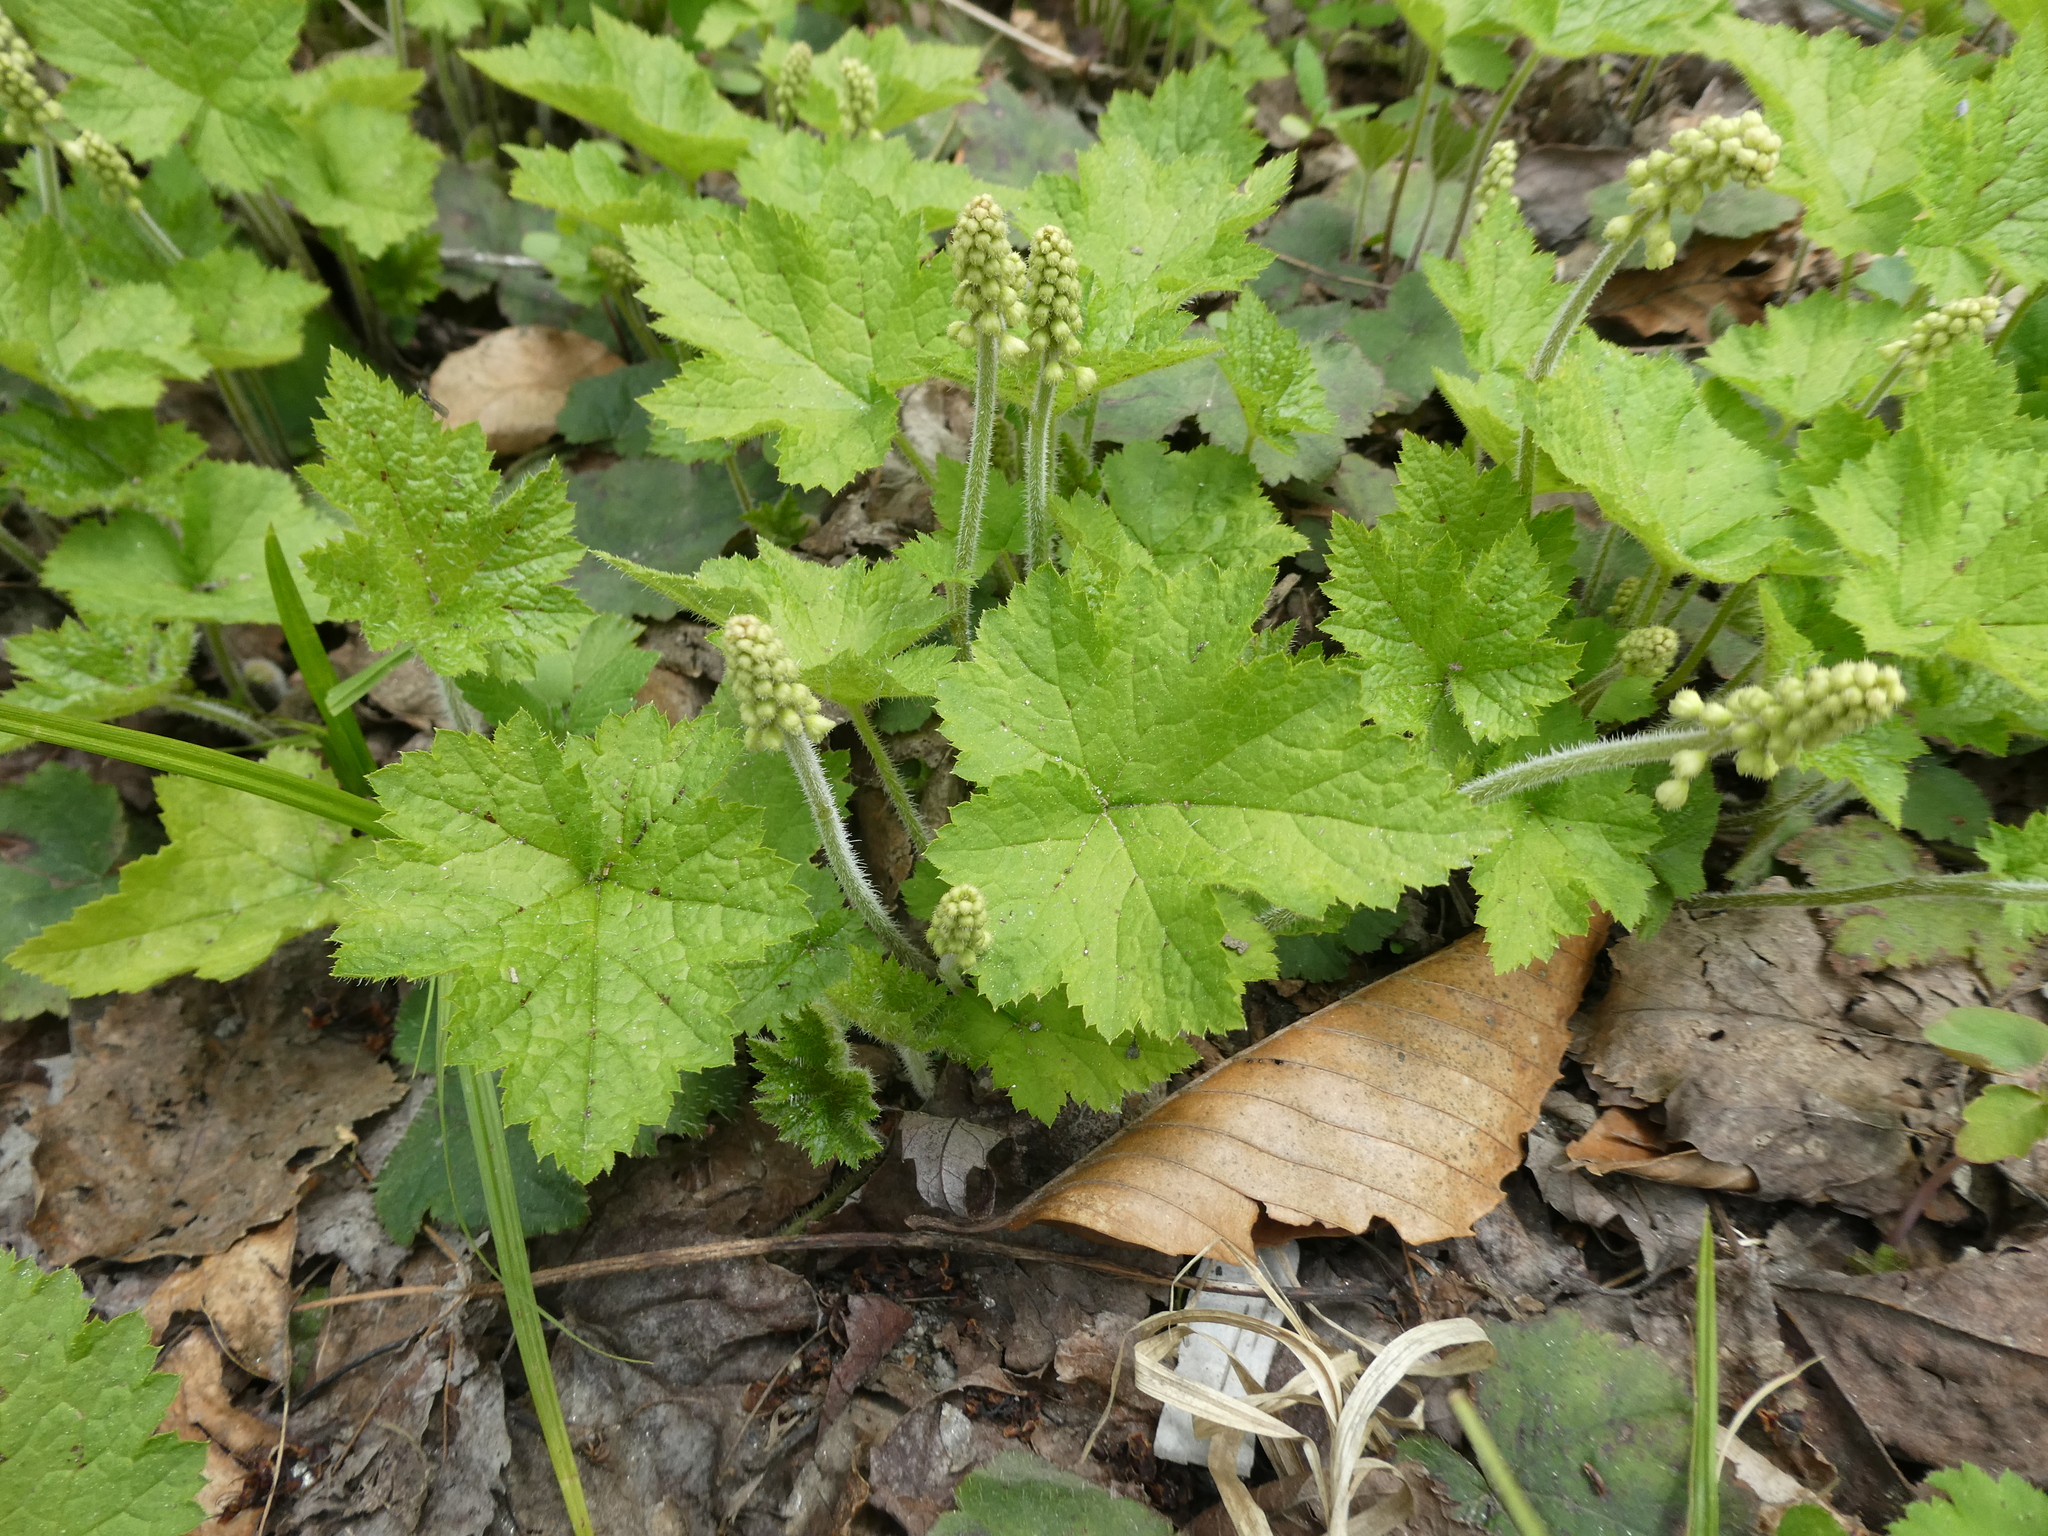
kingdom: Plantae
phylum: Tracheophyta
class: Magnoliopsida
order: Saxifragales
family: Saxifragaceae
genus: Tiarella
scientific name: Tiarella stolonifera
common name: Stoloniferous foamflower
